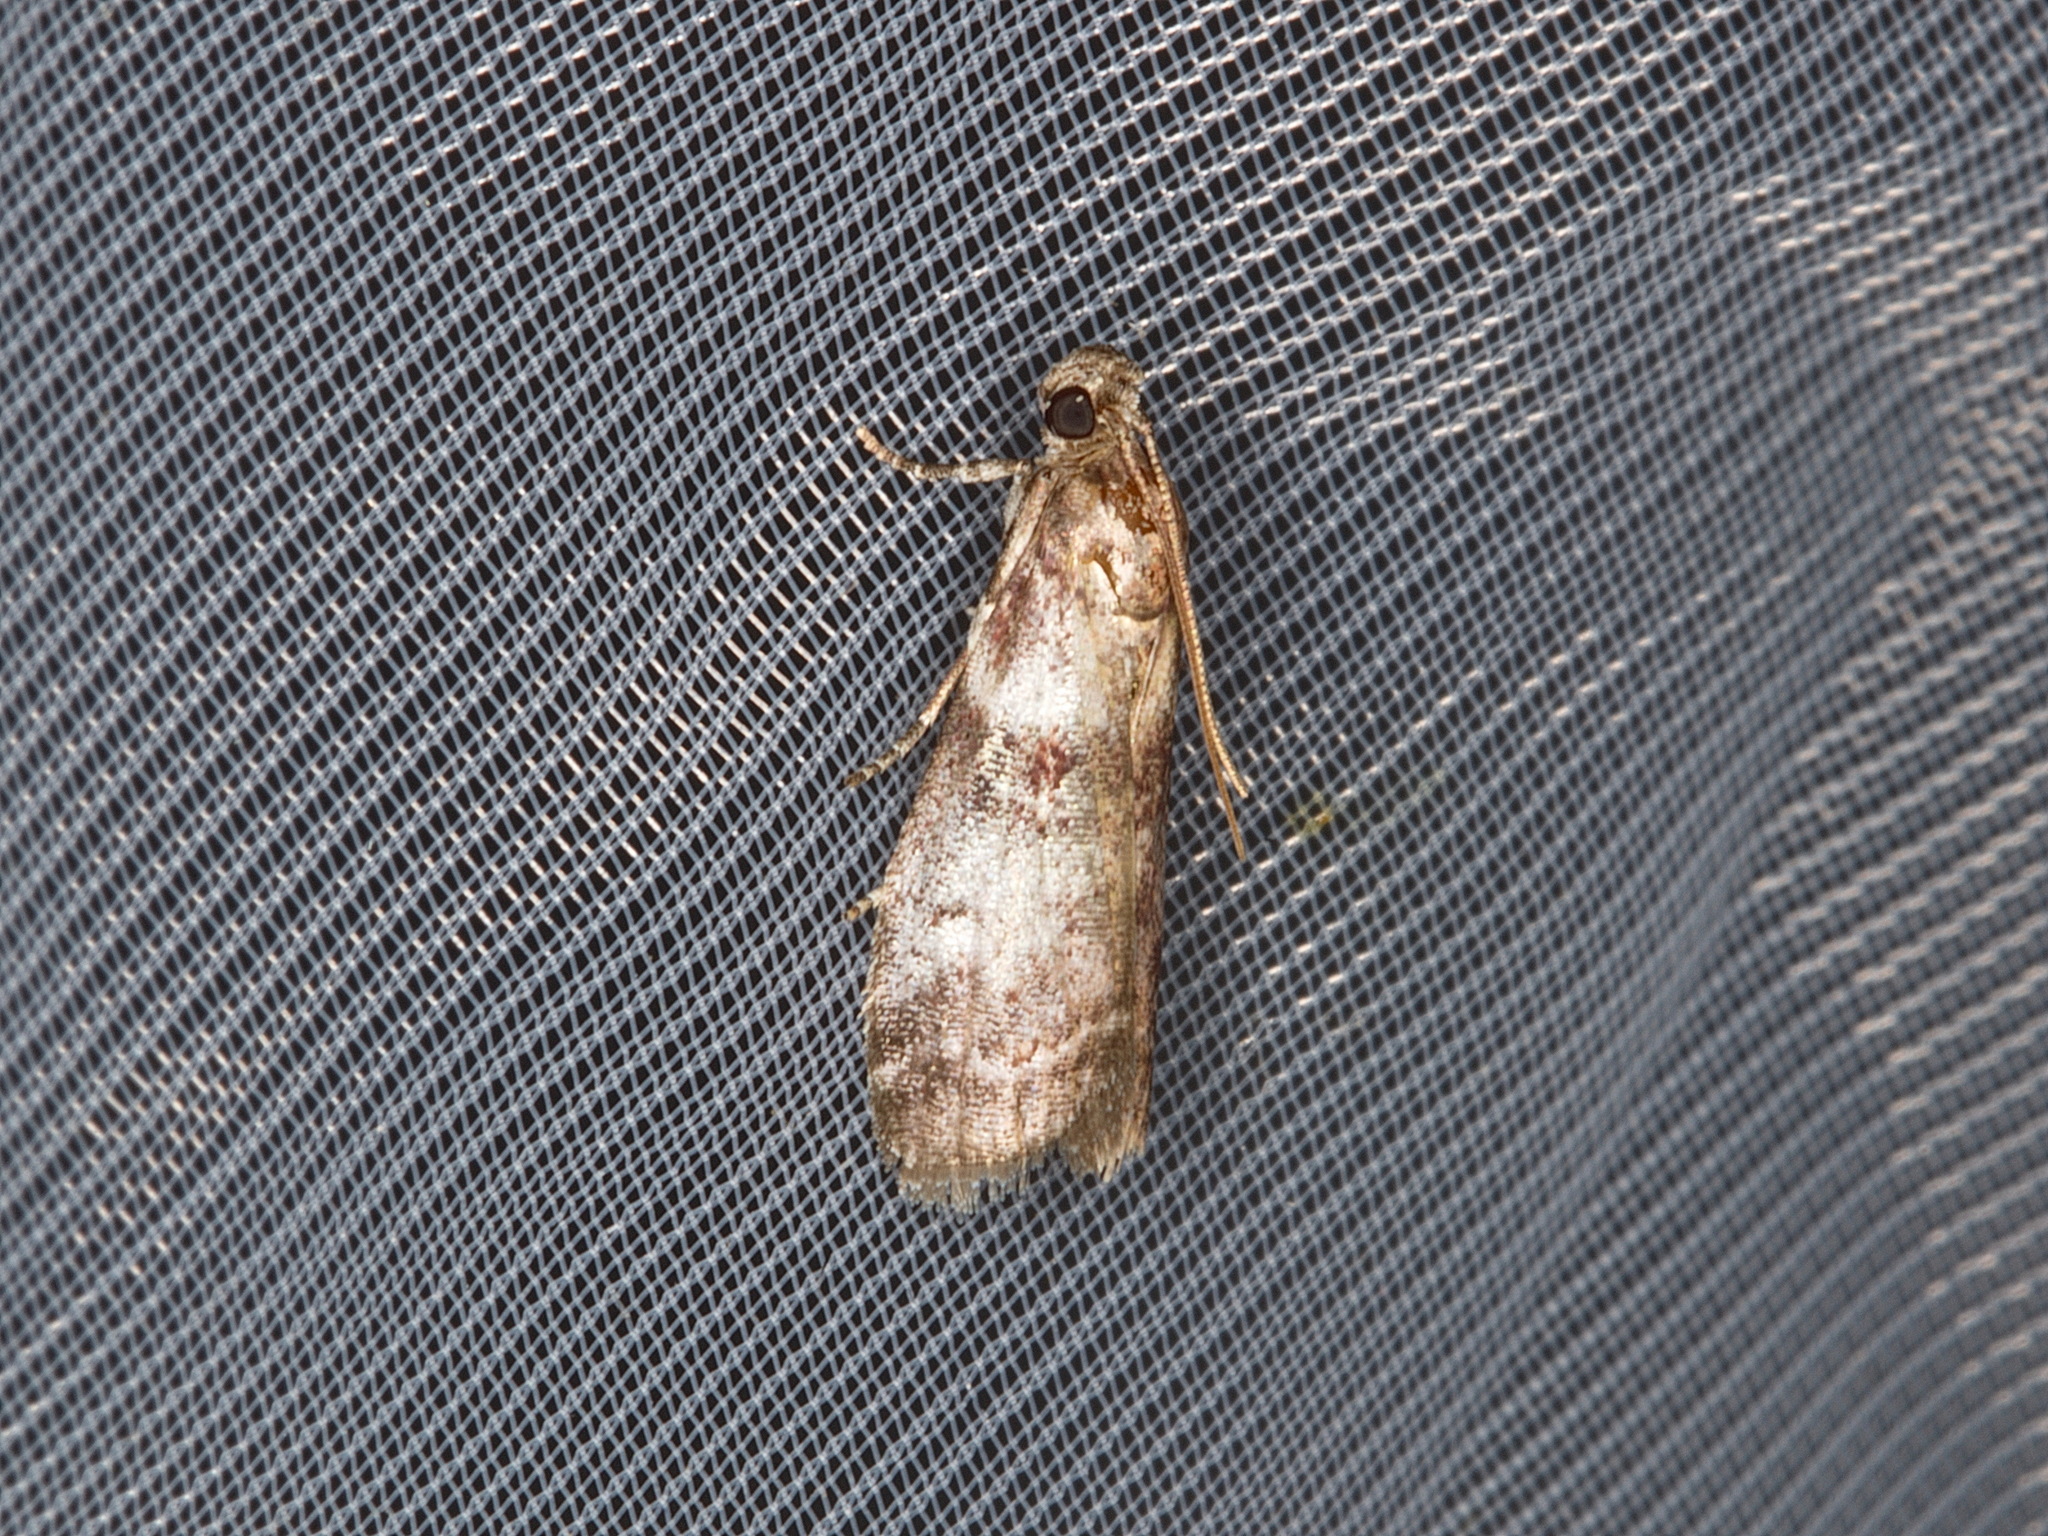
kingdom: Animalia
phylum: Arthropoda
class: Insecta
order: Lepidoptera
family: Pyralidae
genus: Sciota
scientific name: Sciota uvinella
